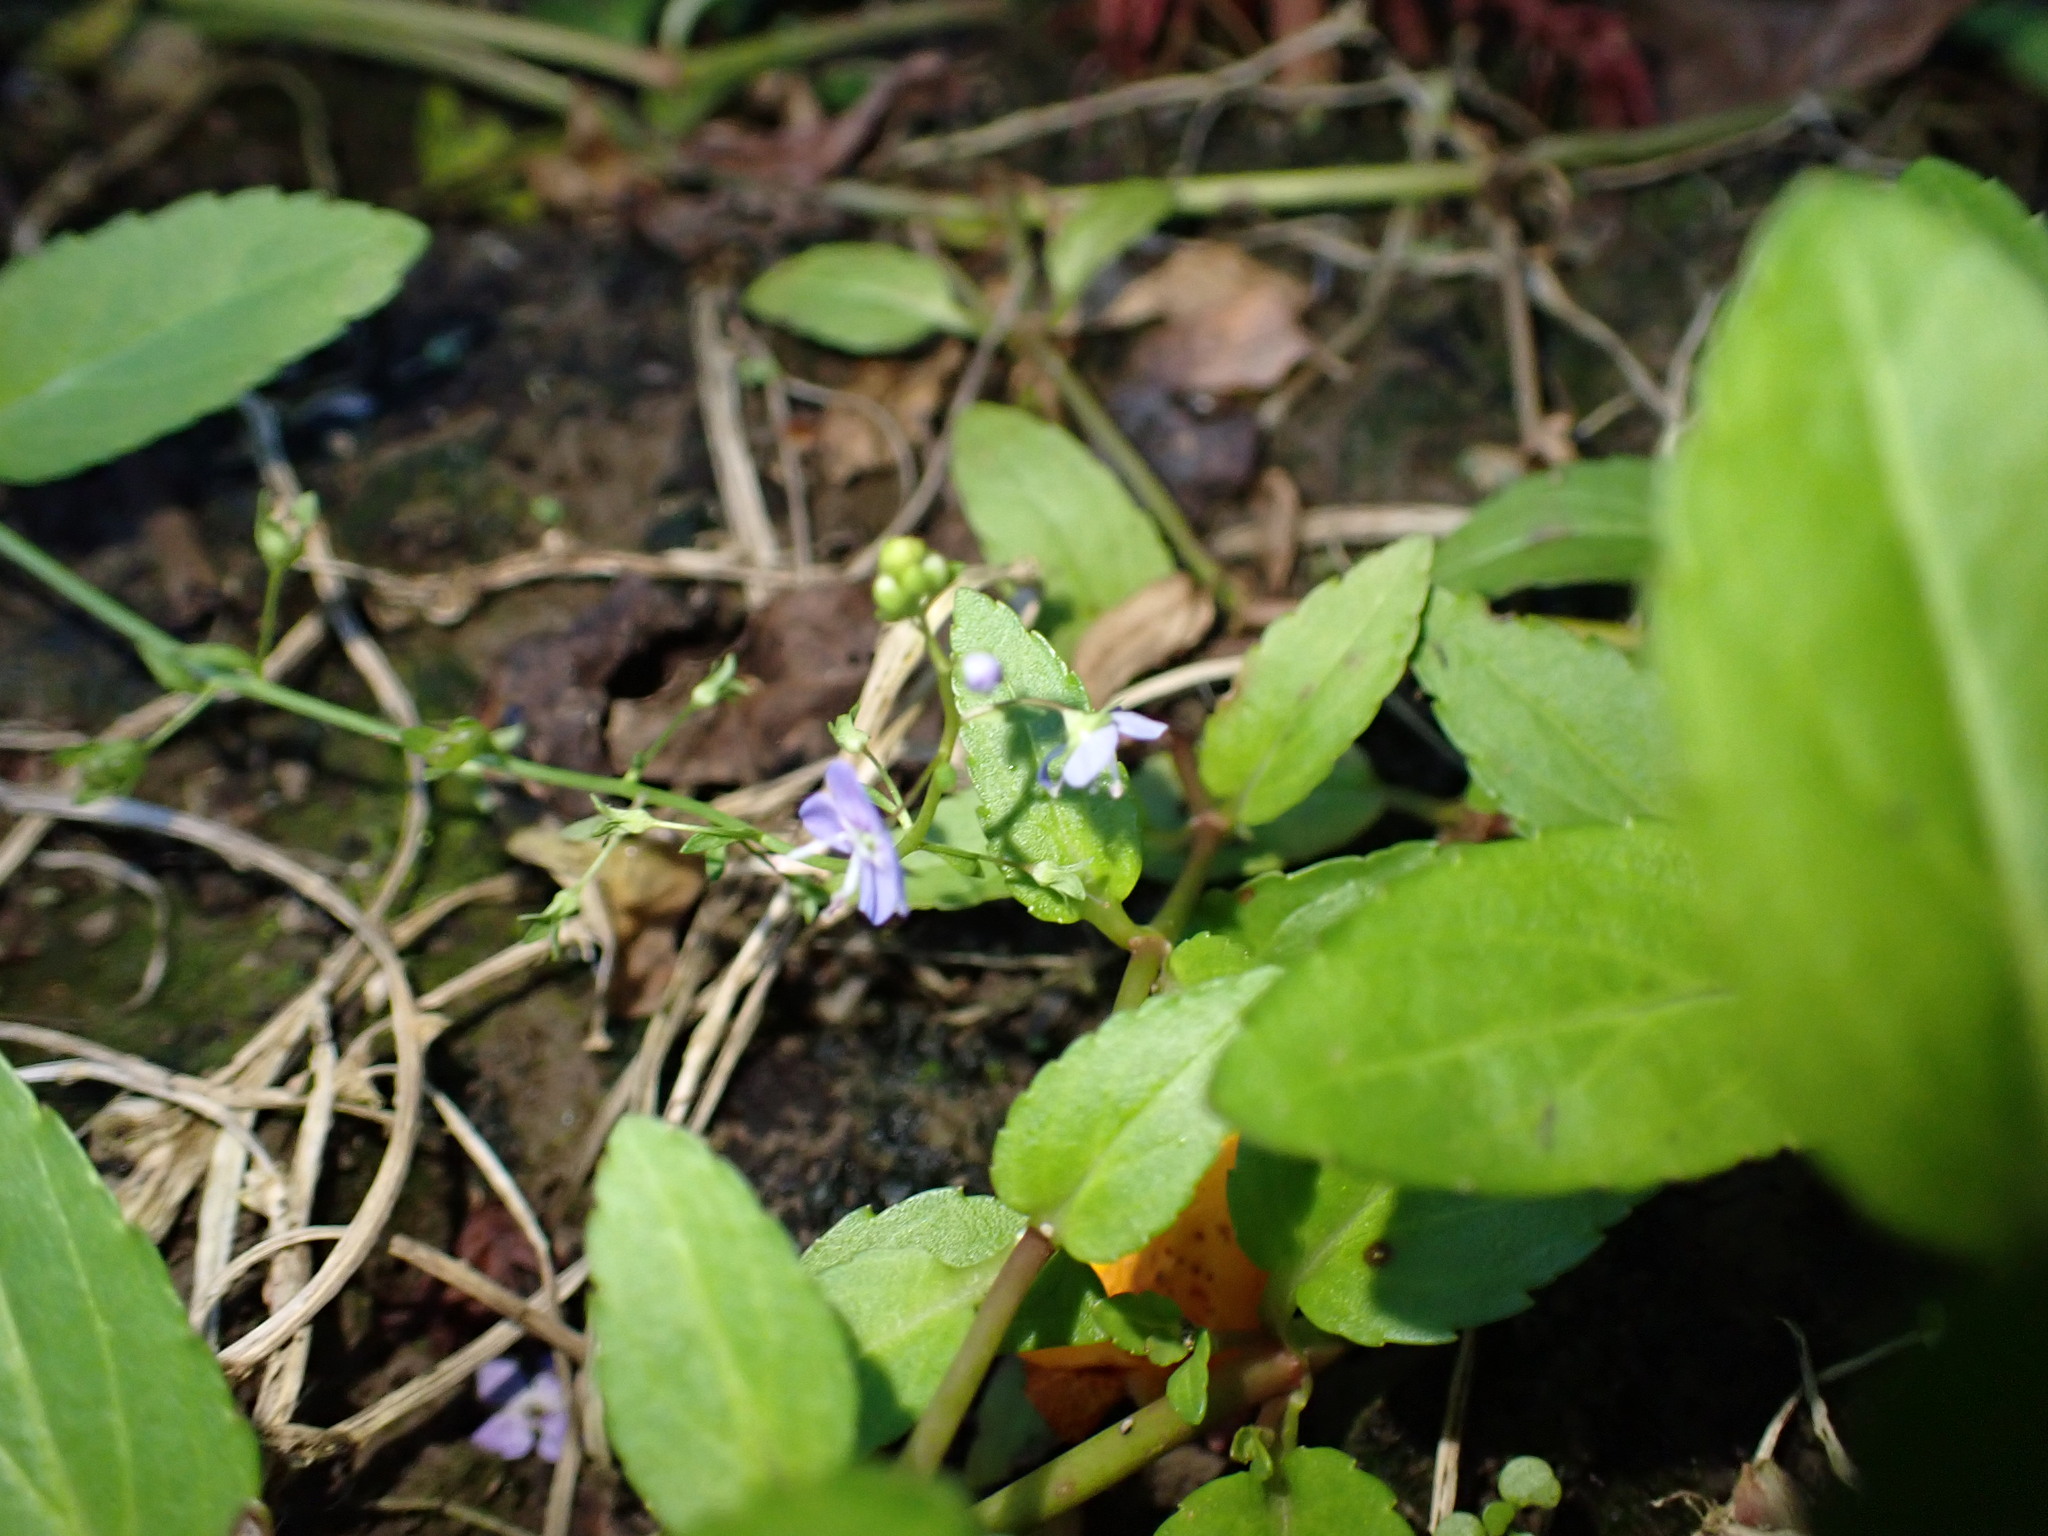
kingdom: Plantae
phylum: Tracheophyta
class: Magnoliopsida
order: Lamiales
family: Plantaginaceae
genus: Veronica
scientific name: Veronica americana
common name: American brooklime
